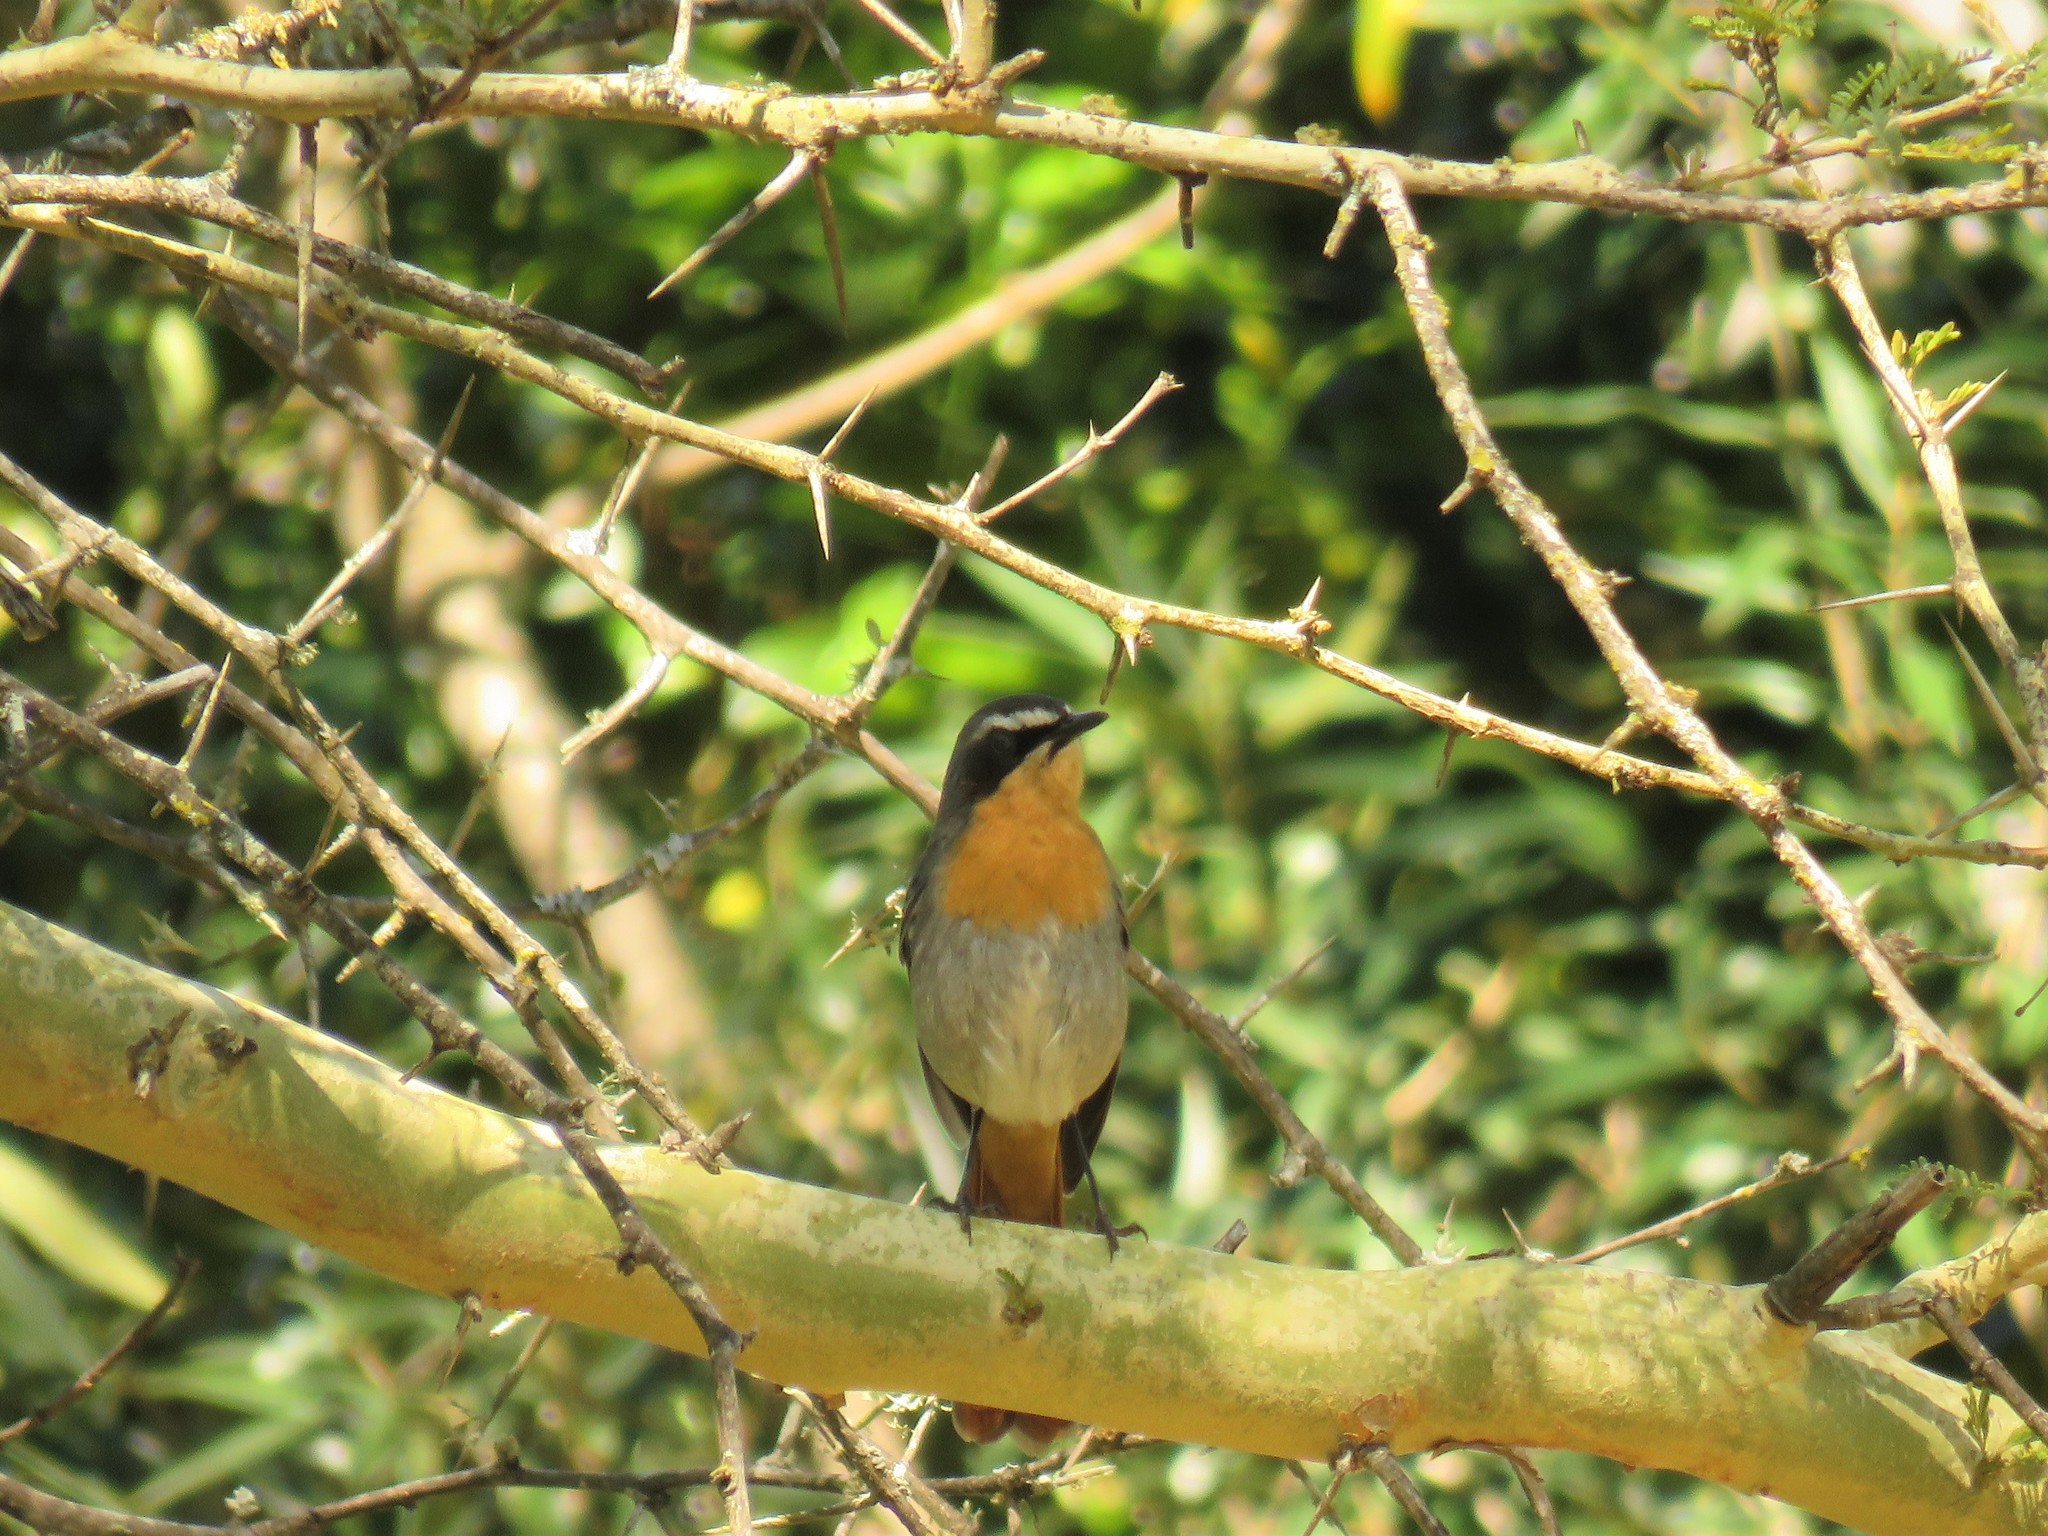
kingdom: Animalia
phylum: Chordata
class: Aves
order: Passeriformes
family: Muscicapidae
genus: Cossypha
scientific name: Cossypha caffra
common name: Cape robin-chat
